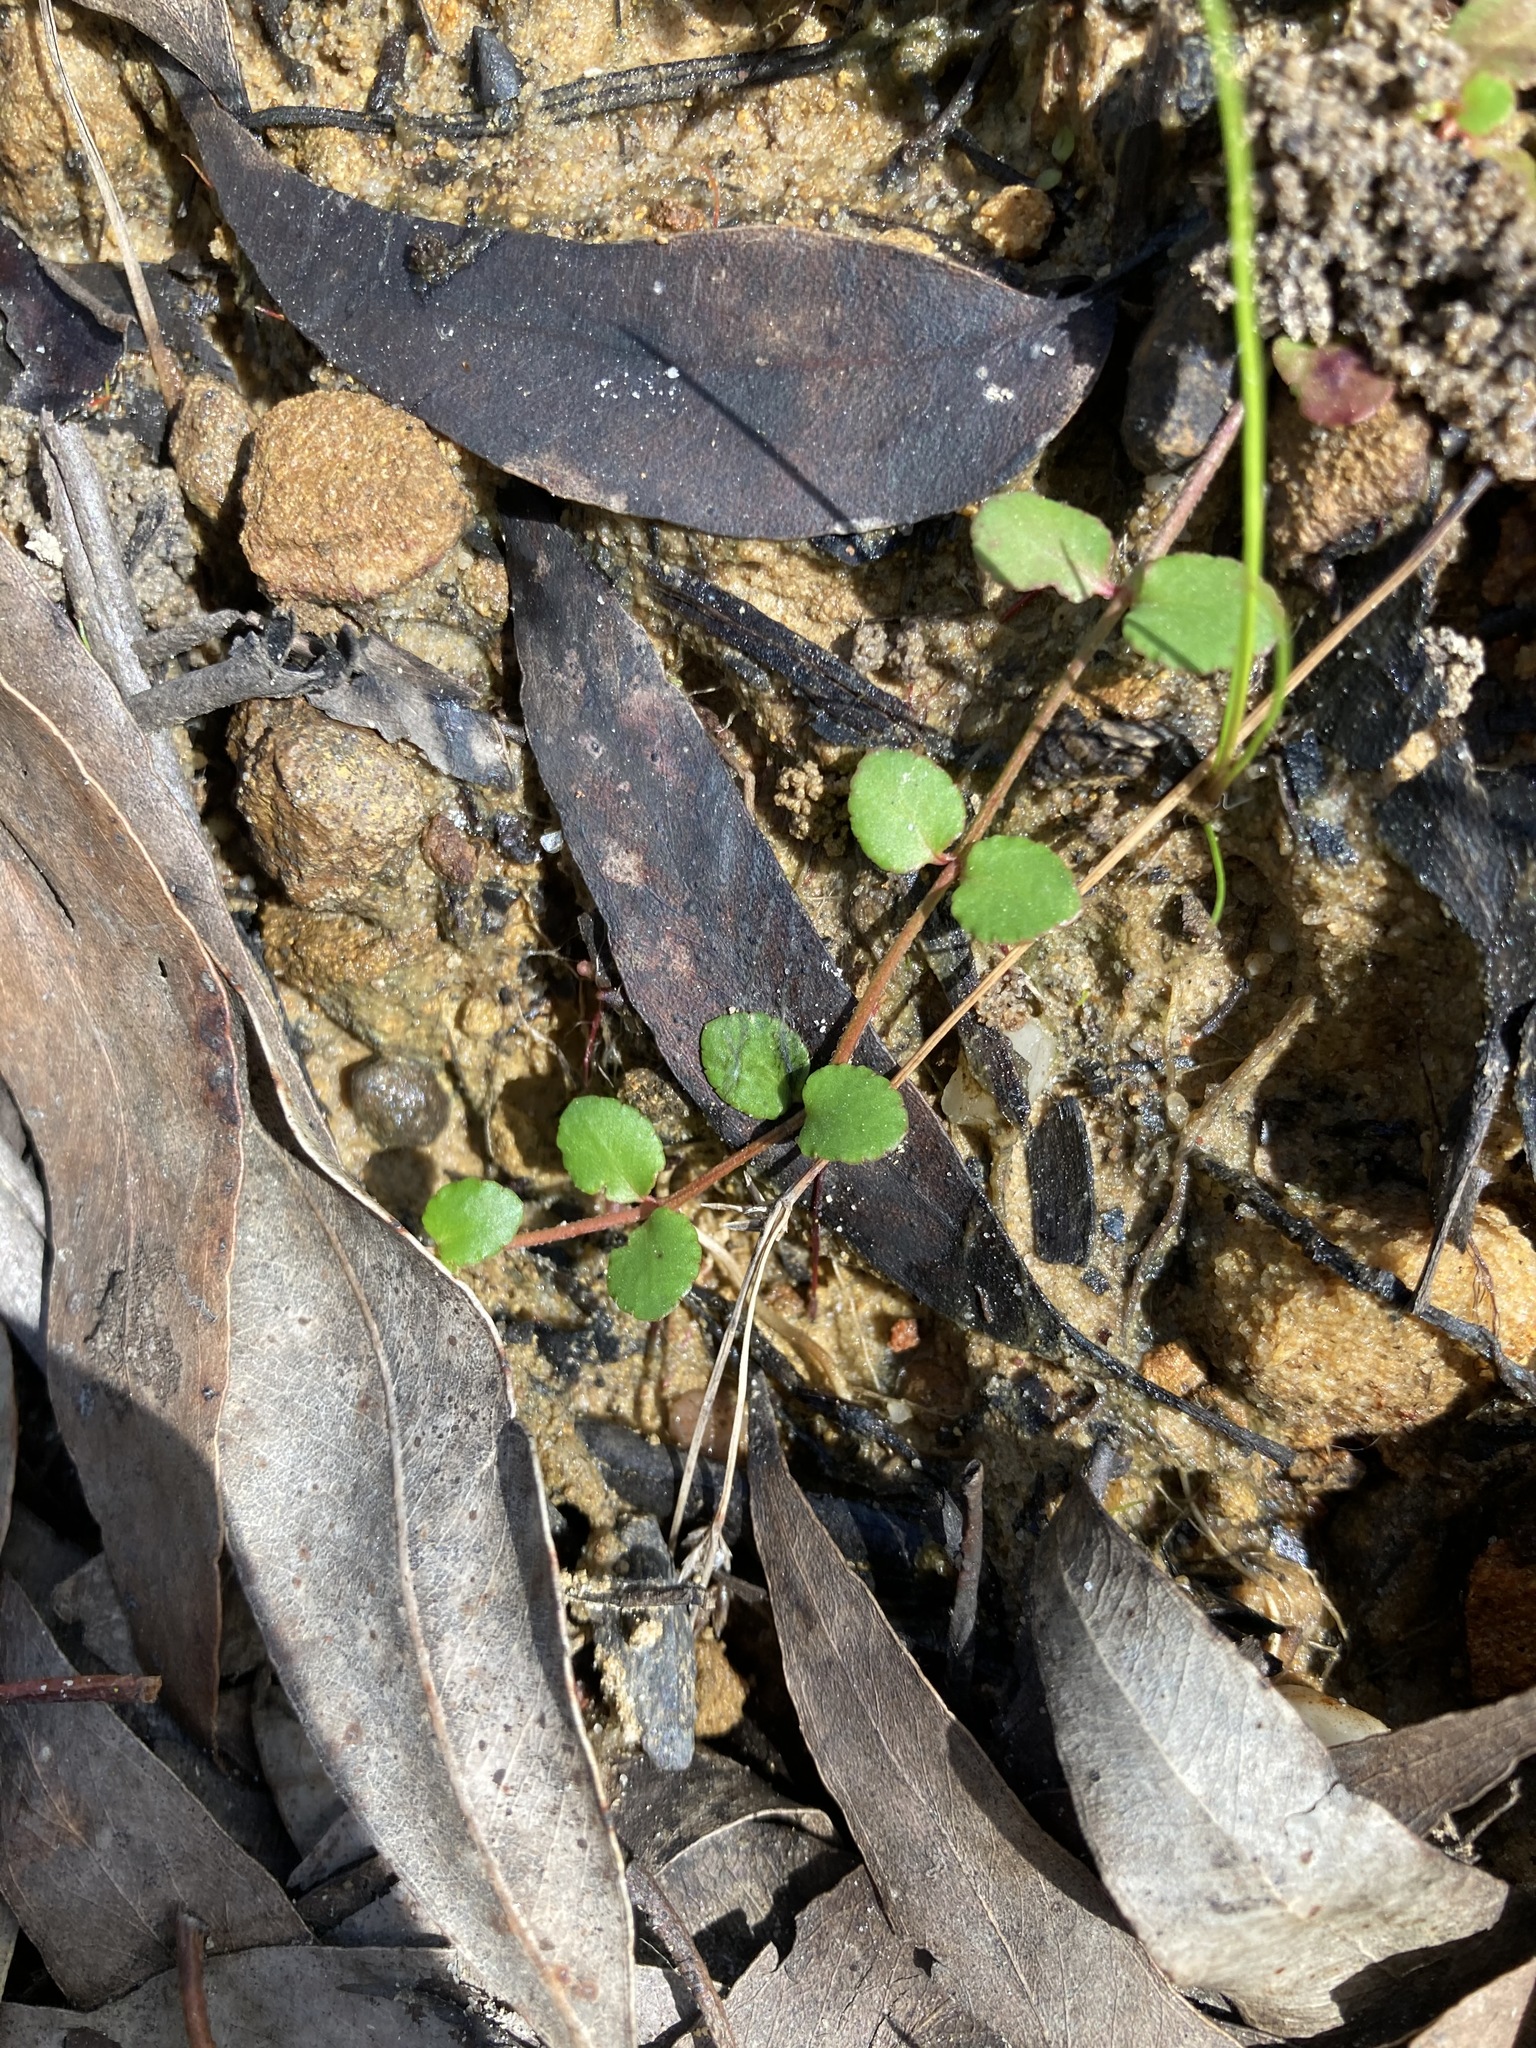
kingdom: Plantae
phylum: Tracheophyta
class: Magnoliopsida
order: Saxifragales
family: Haloragaceae
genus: Gonocarpus
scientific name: Gonocarpus micranthus
